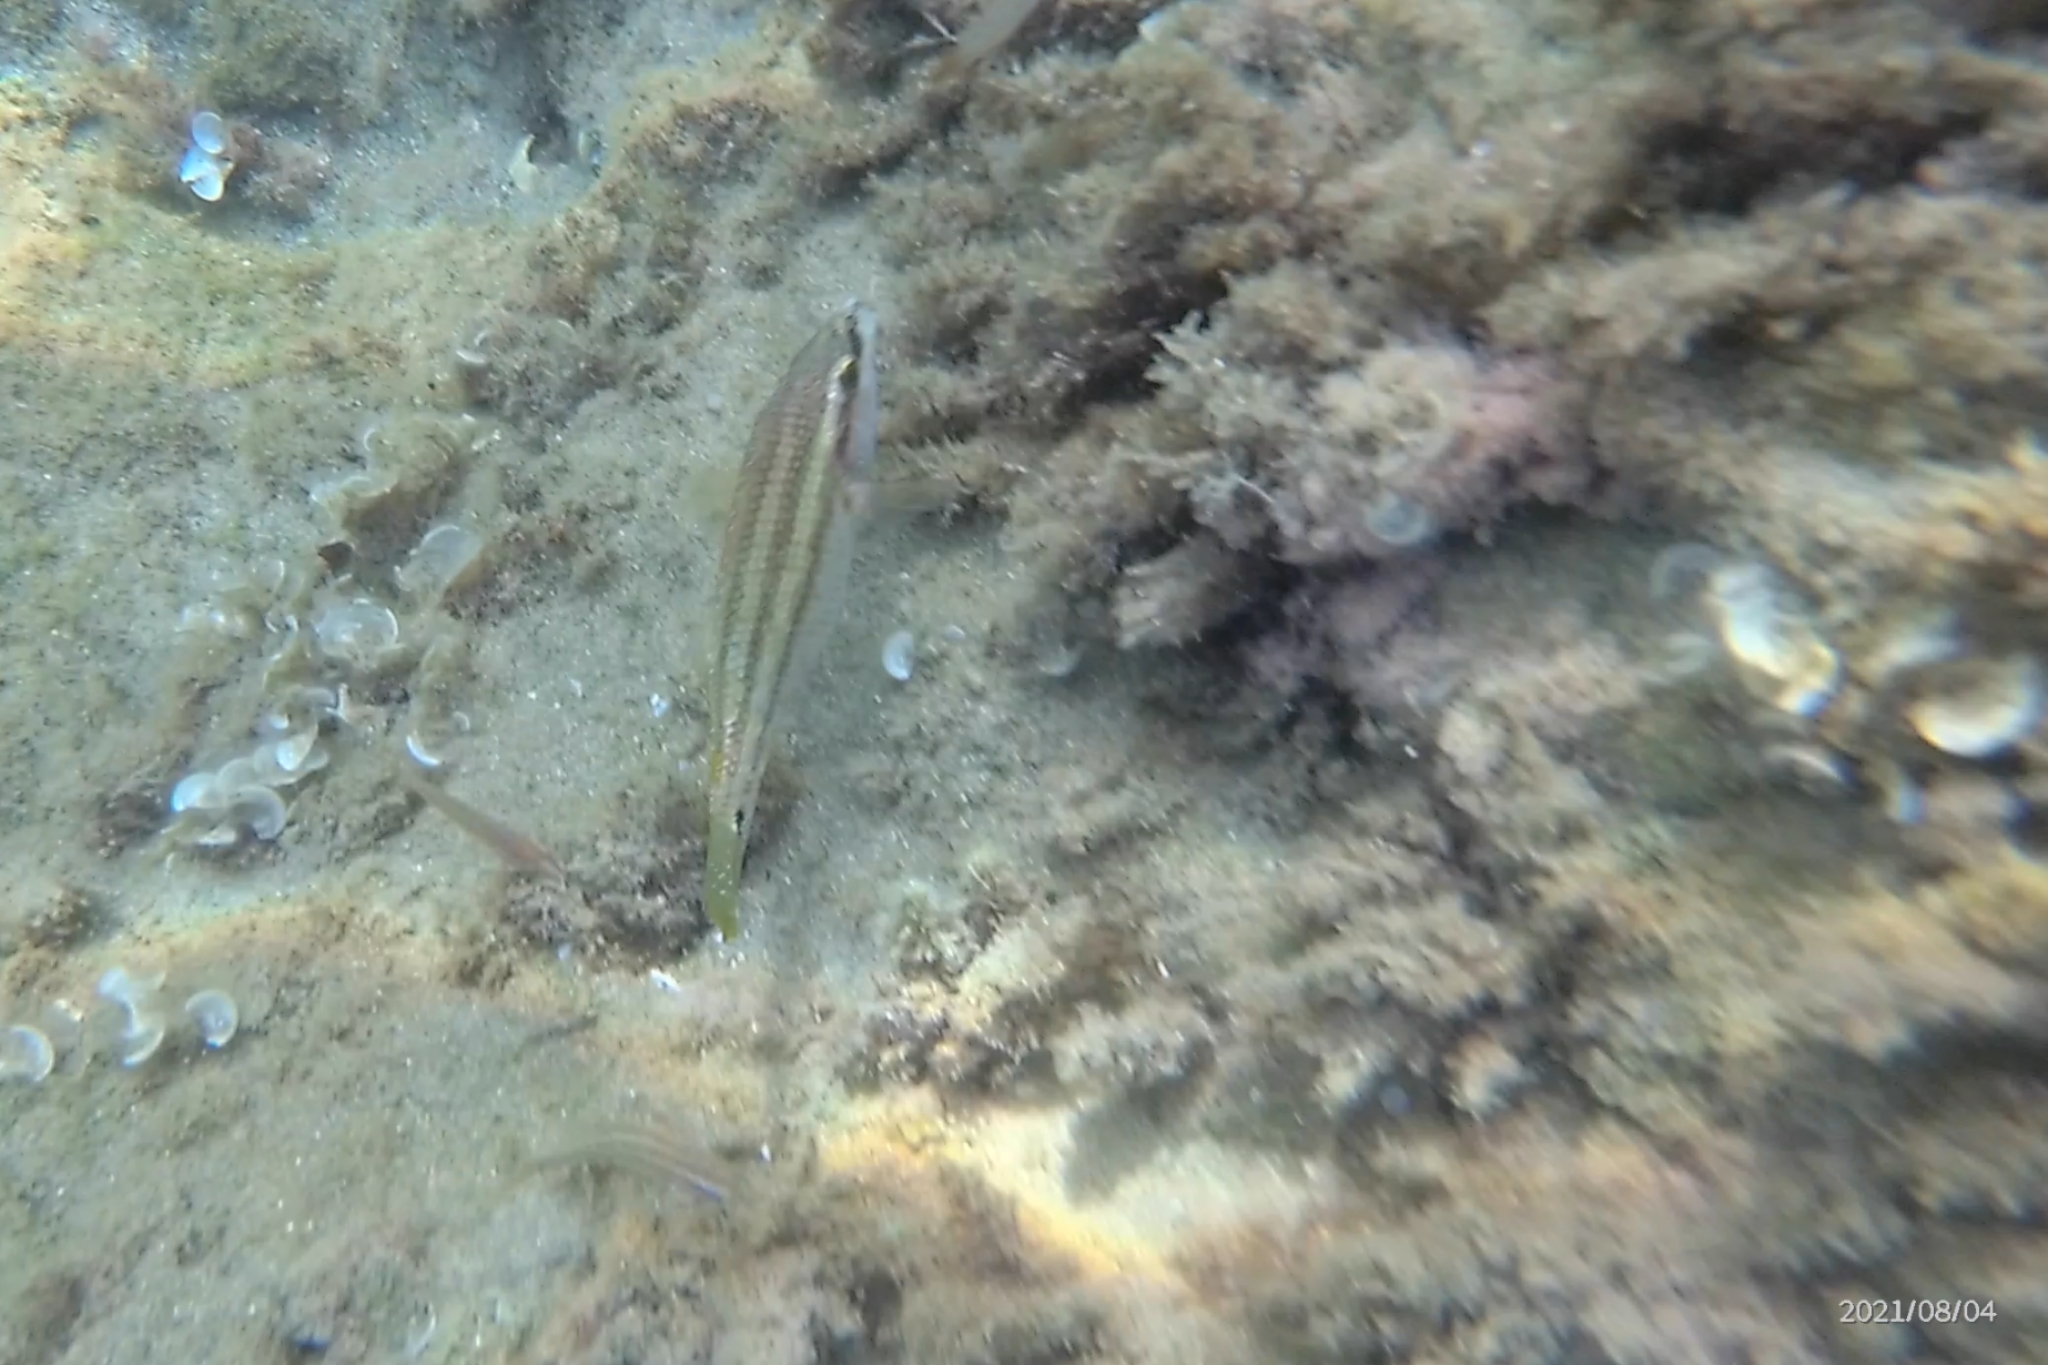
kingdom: Animalia
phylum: Chordata
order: Perciformes
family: Labridae
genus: Symphodus
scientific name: Symphodus tinca
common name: Peacock wrasse
